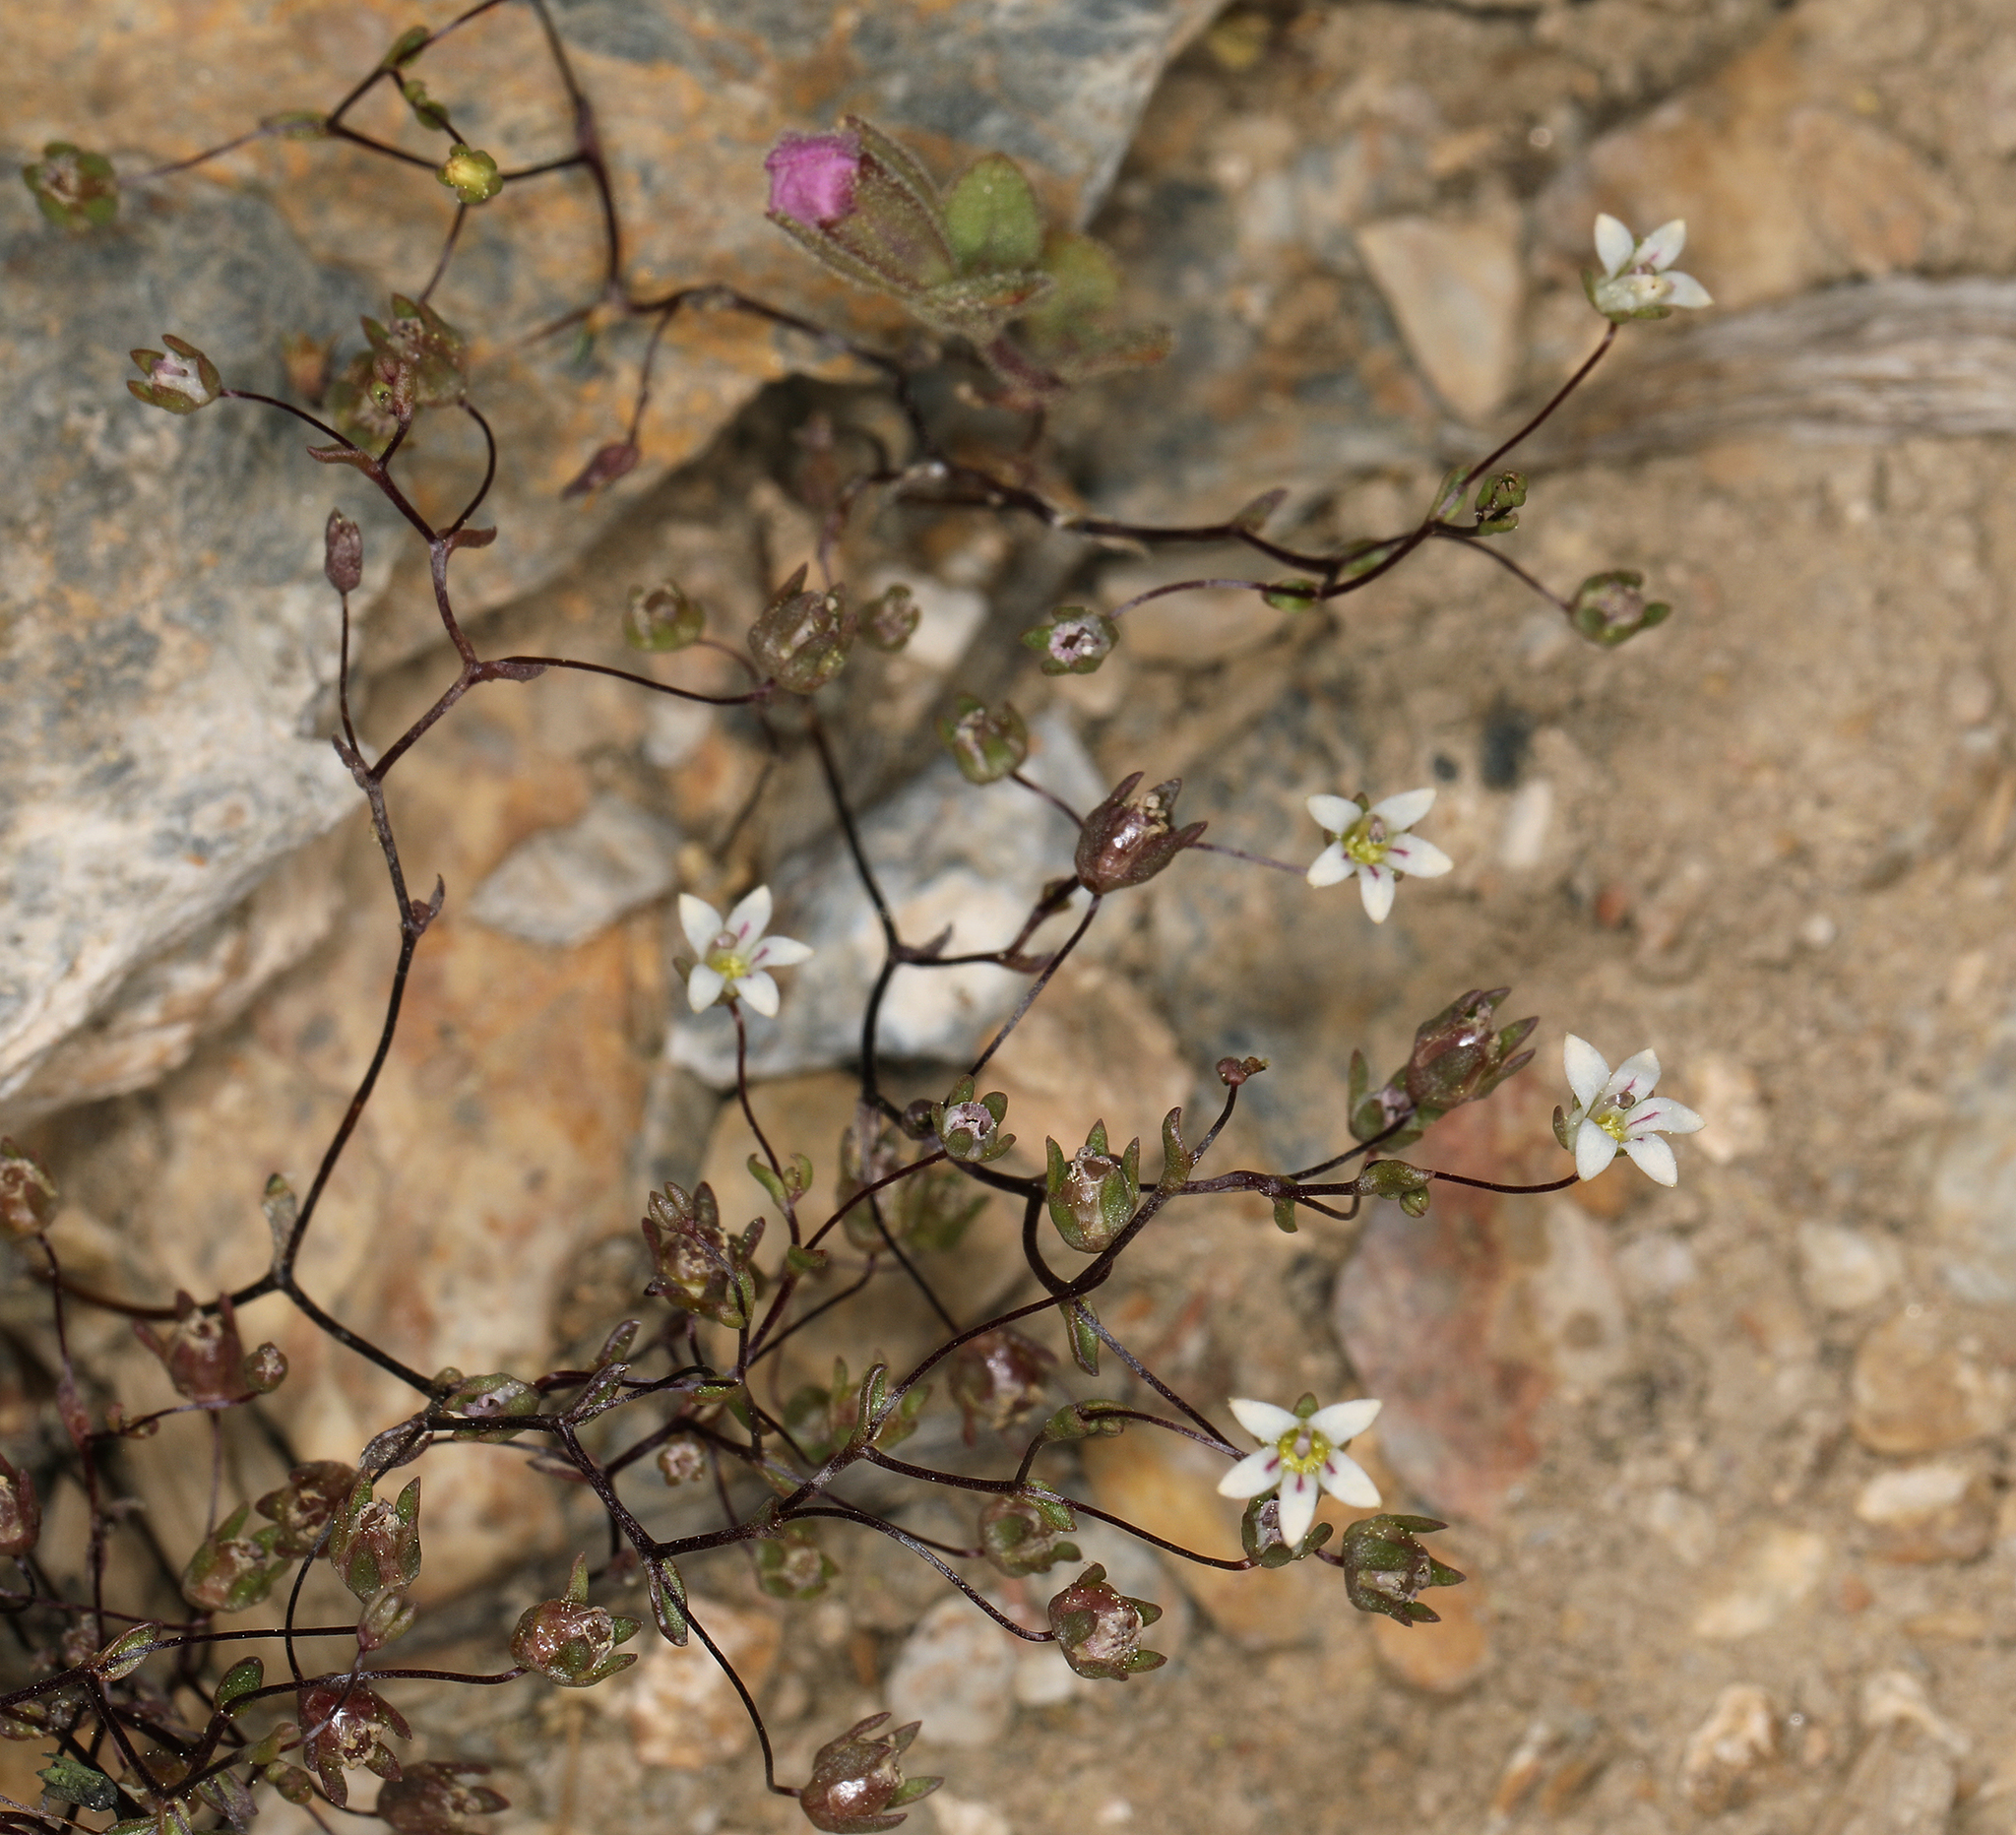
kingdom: Plantae
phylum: Tracheophyta
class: Magnoliopsida
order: Asterales
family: Campanulaceae
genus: Nemacladus
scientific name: Nemacladus inyoensis
